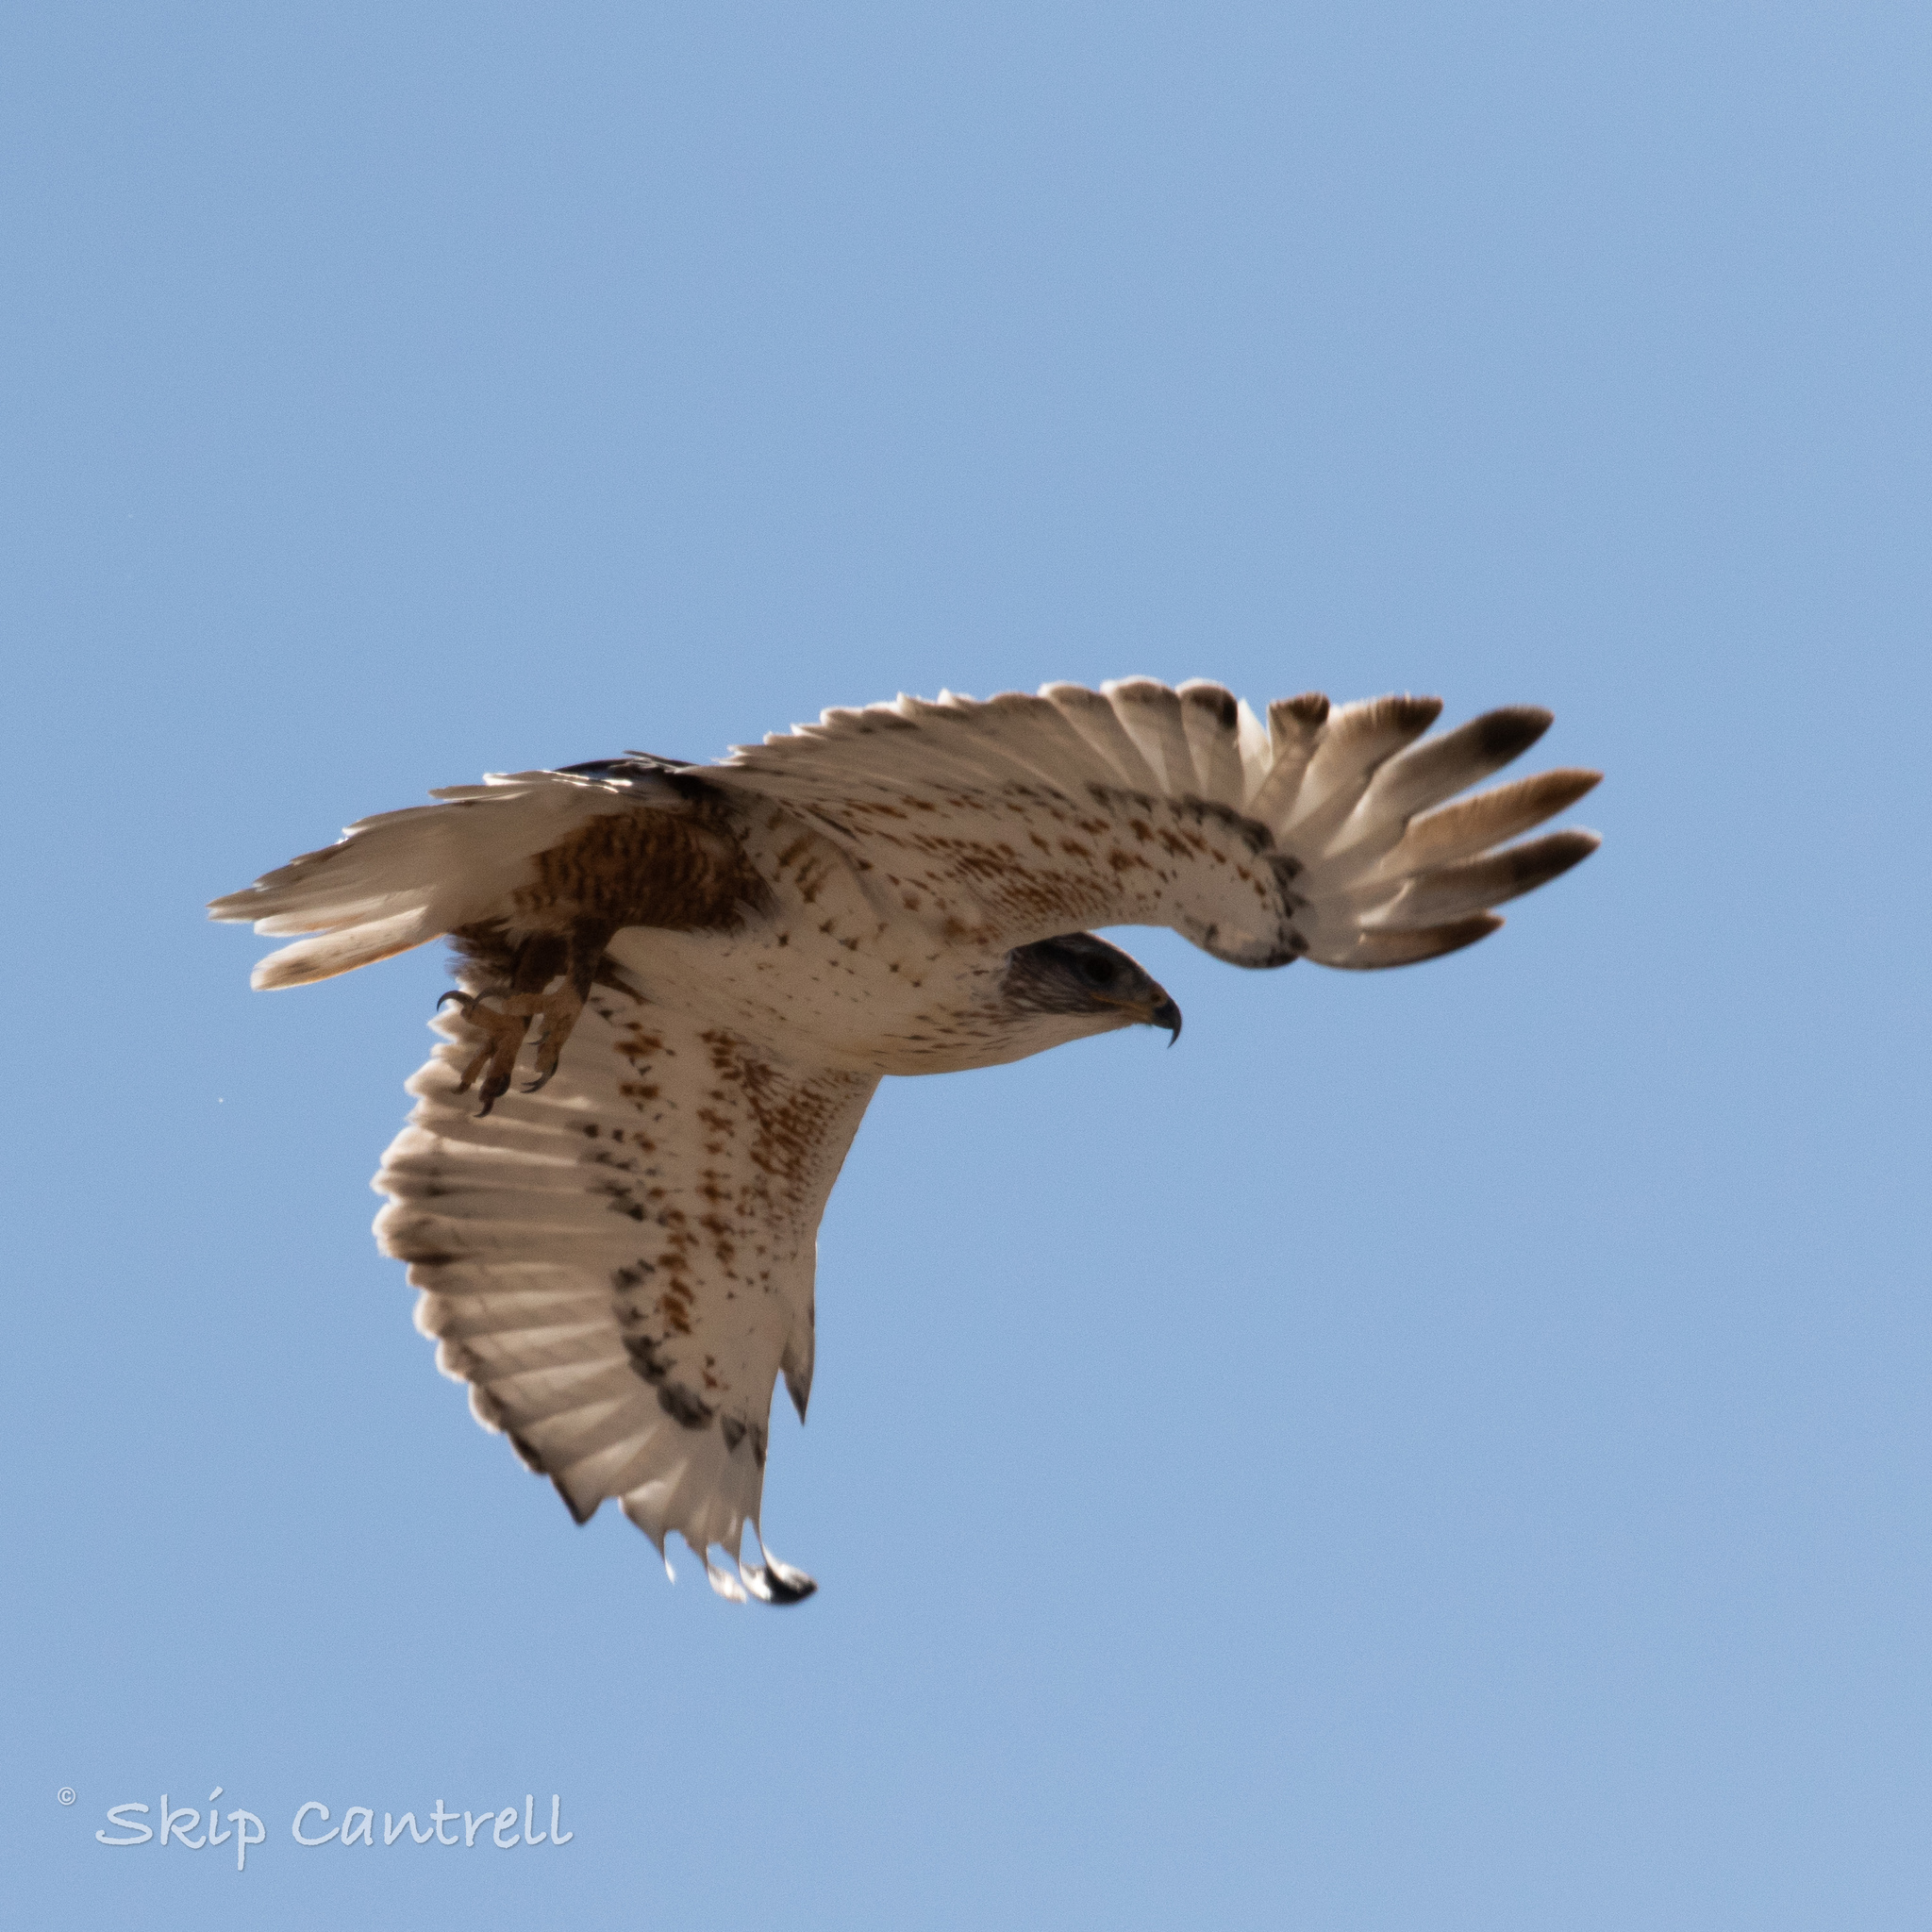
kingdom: Animalia
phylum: Chordata
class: Aves
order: Accipitriformes
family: Accipitridae
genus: Buteo
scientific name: Buteo regalis
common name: Ferruginous hawk
